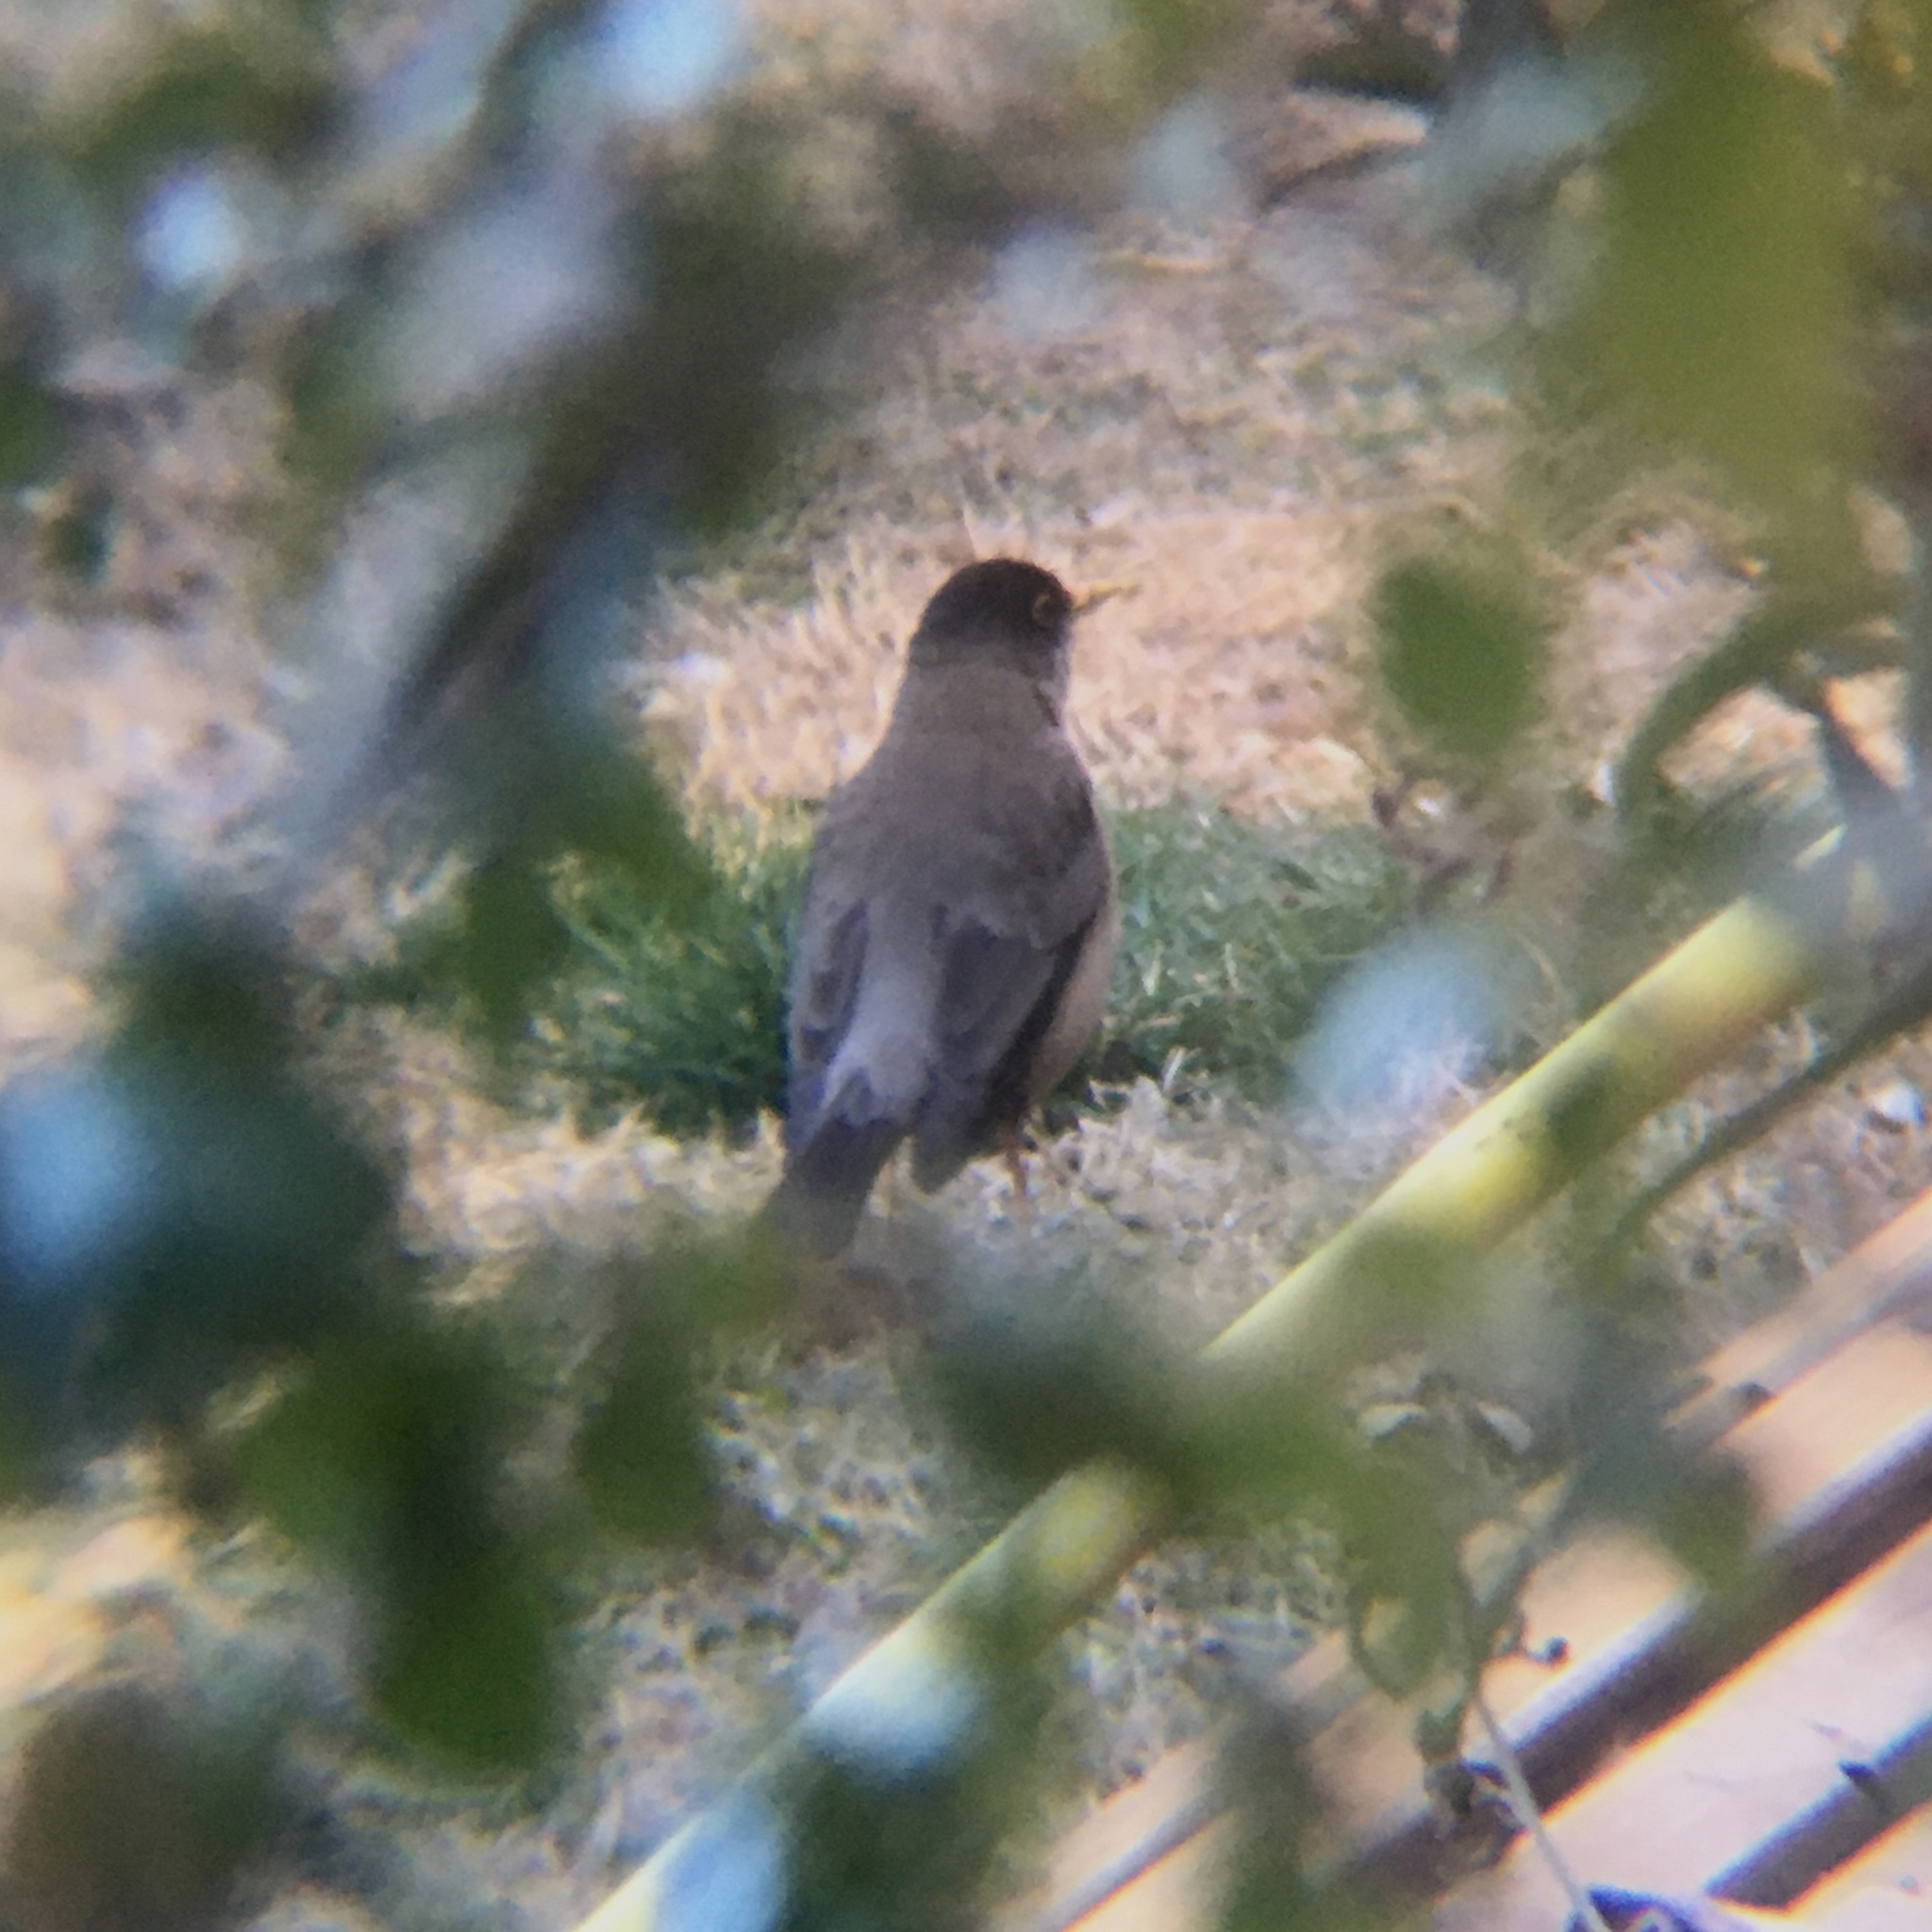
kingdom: Animalia
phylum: Chordata
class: Aves
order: Passeriformes
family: Turdidae
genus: Turdus
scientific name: Turdus falcklandii
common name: Austral thrush
